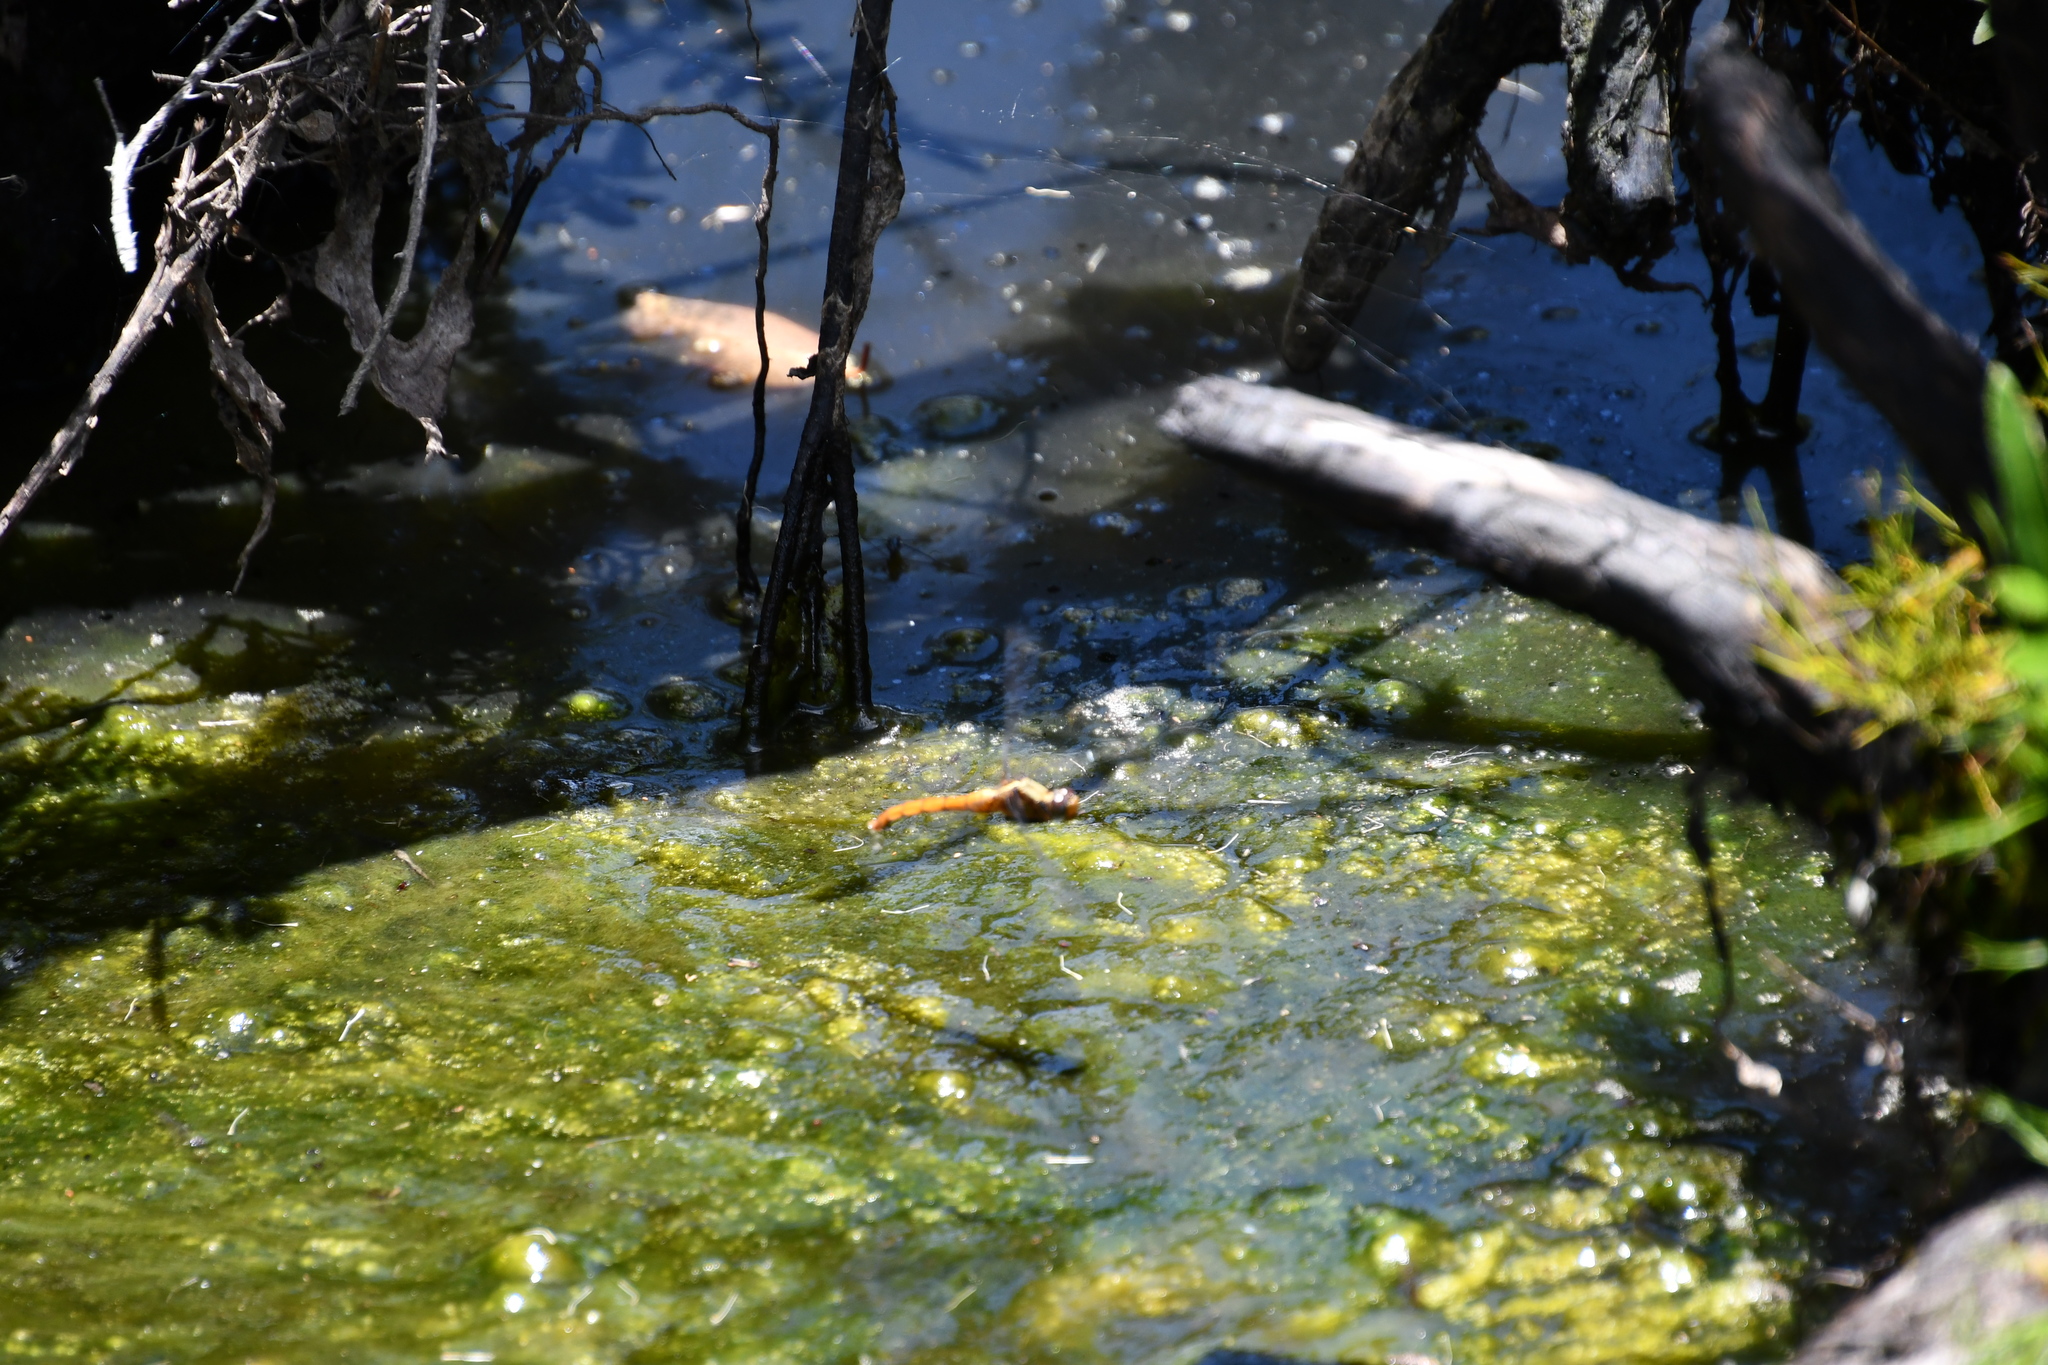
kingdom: Animalia
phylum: Arthropoda
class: Insecta
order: Odonata
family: Libellulidae
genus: Orthetrum
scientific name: Orthetrum villosovittatum
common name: Firery skimmer
